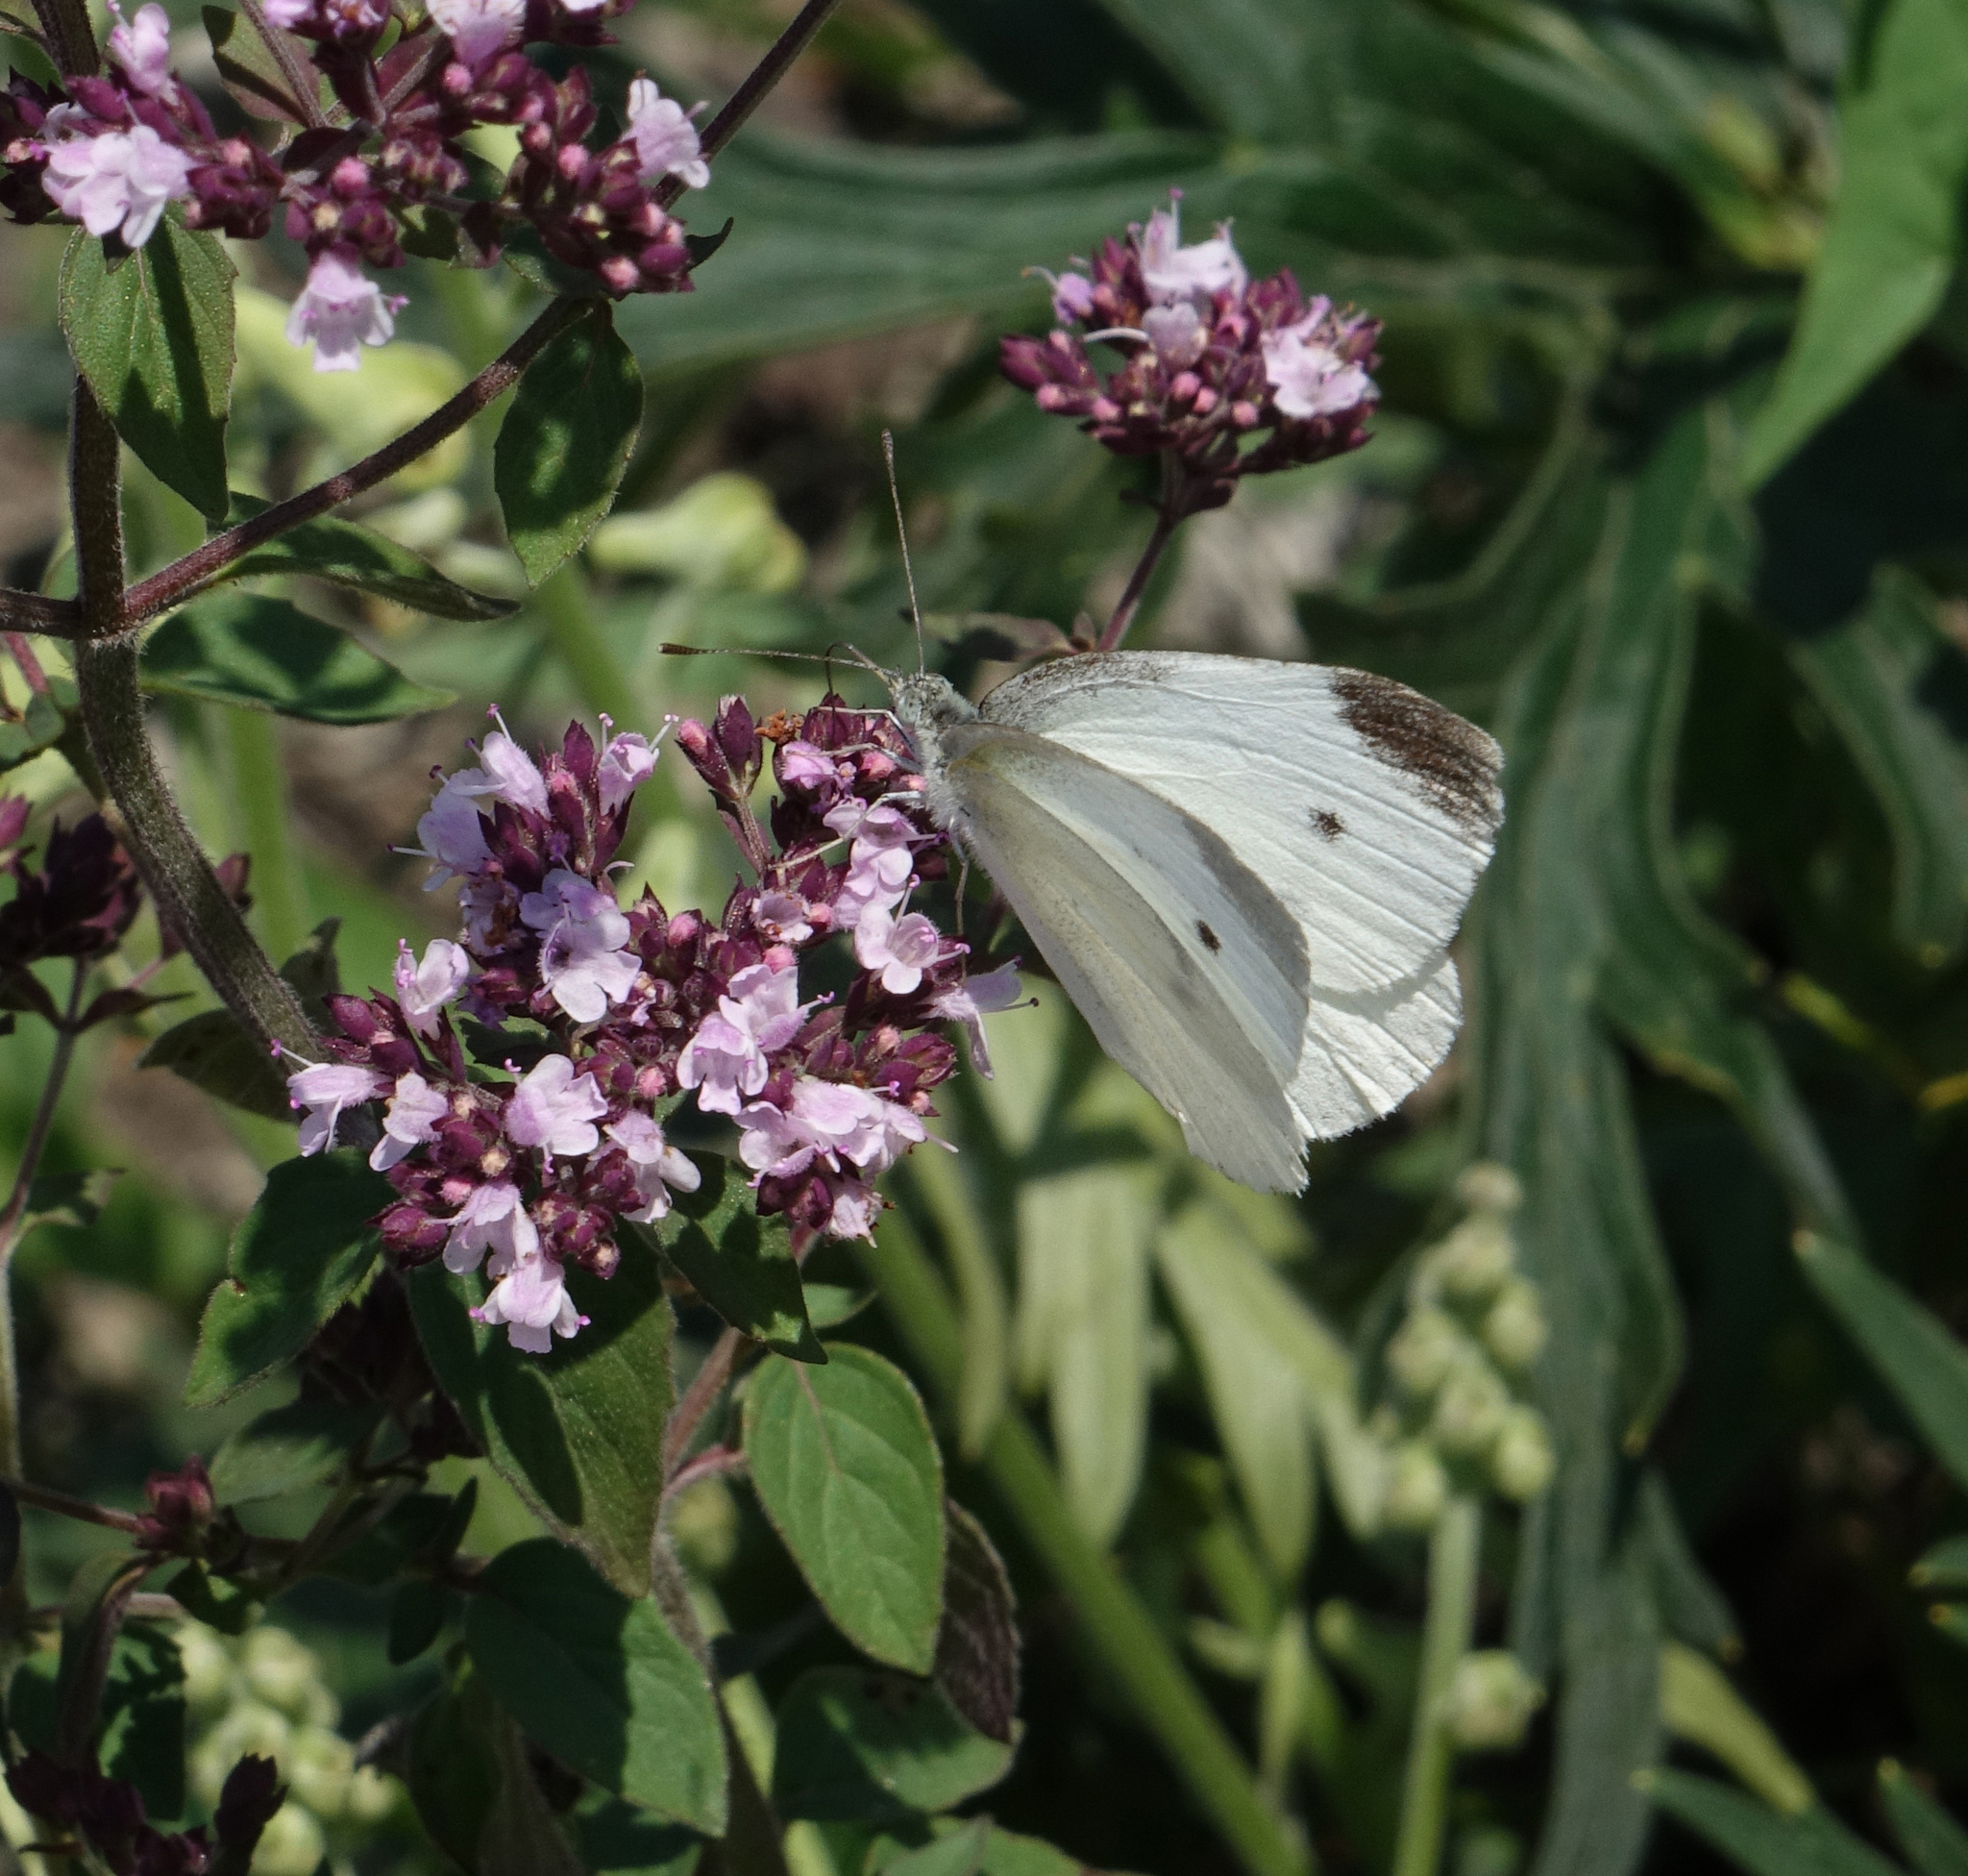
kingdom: Plantae
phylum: Tracheophyta
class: Magnoliopsida
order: Lamiales
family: Lamiaceae
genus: Origanum
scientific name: Origanum vulgare
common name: Wild marjoram
